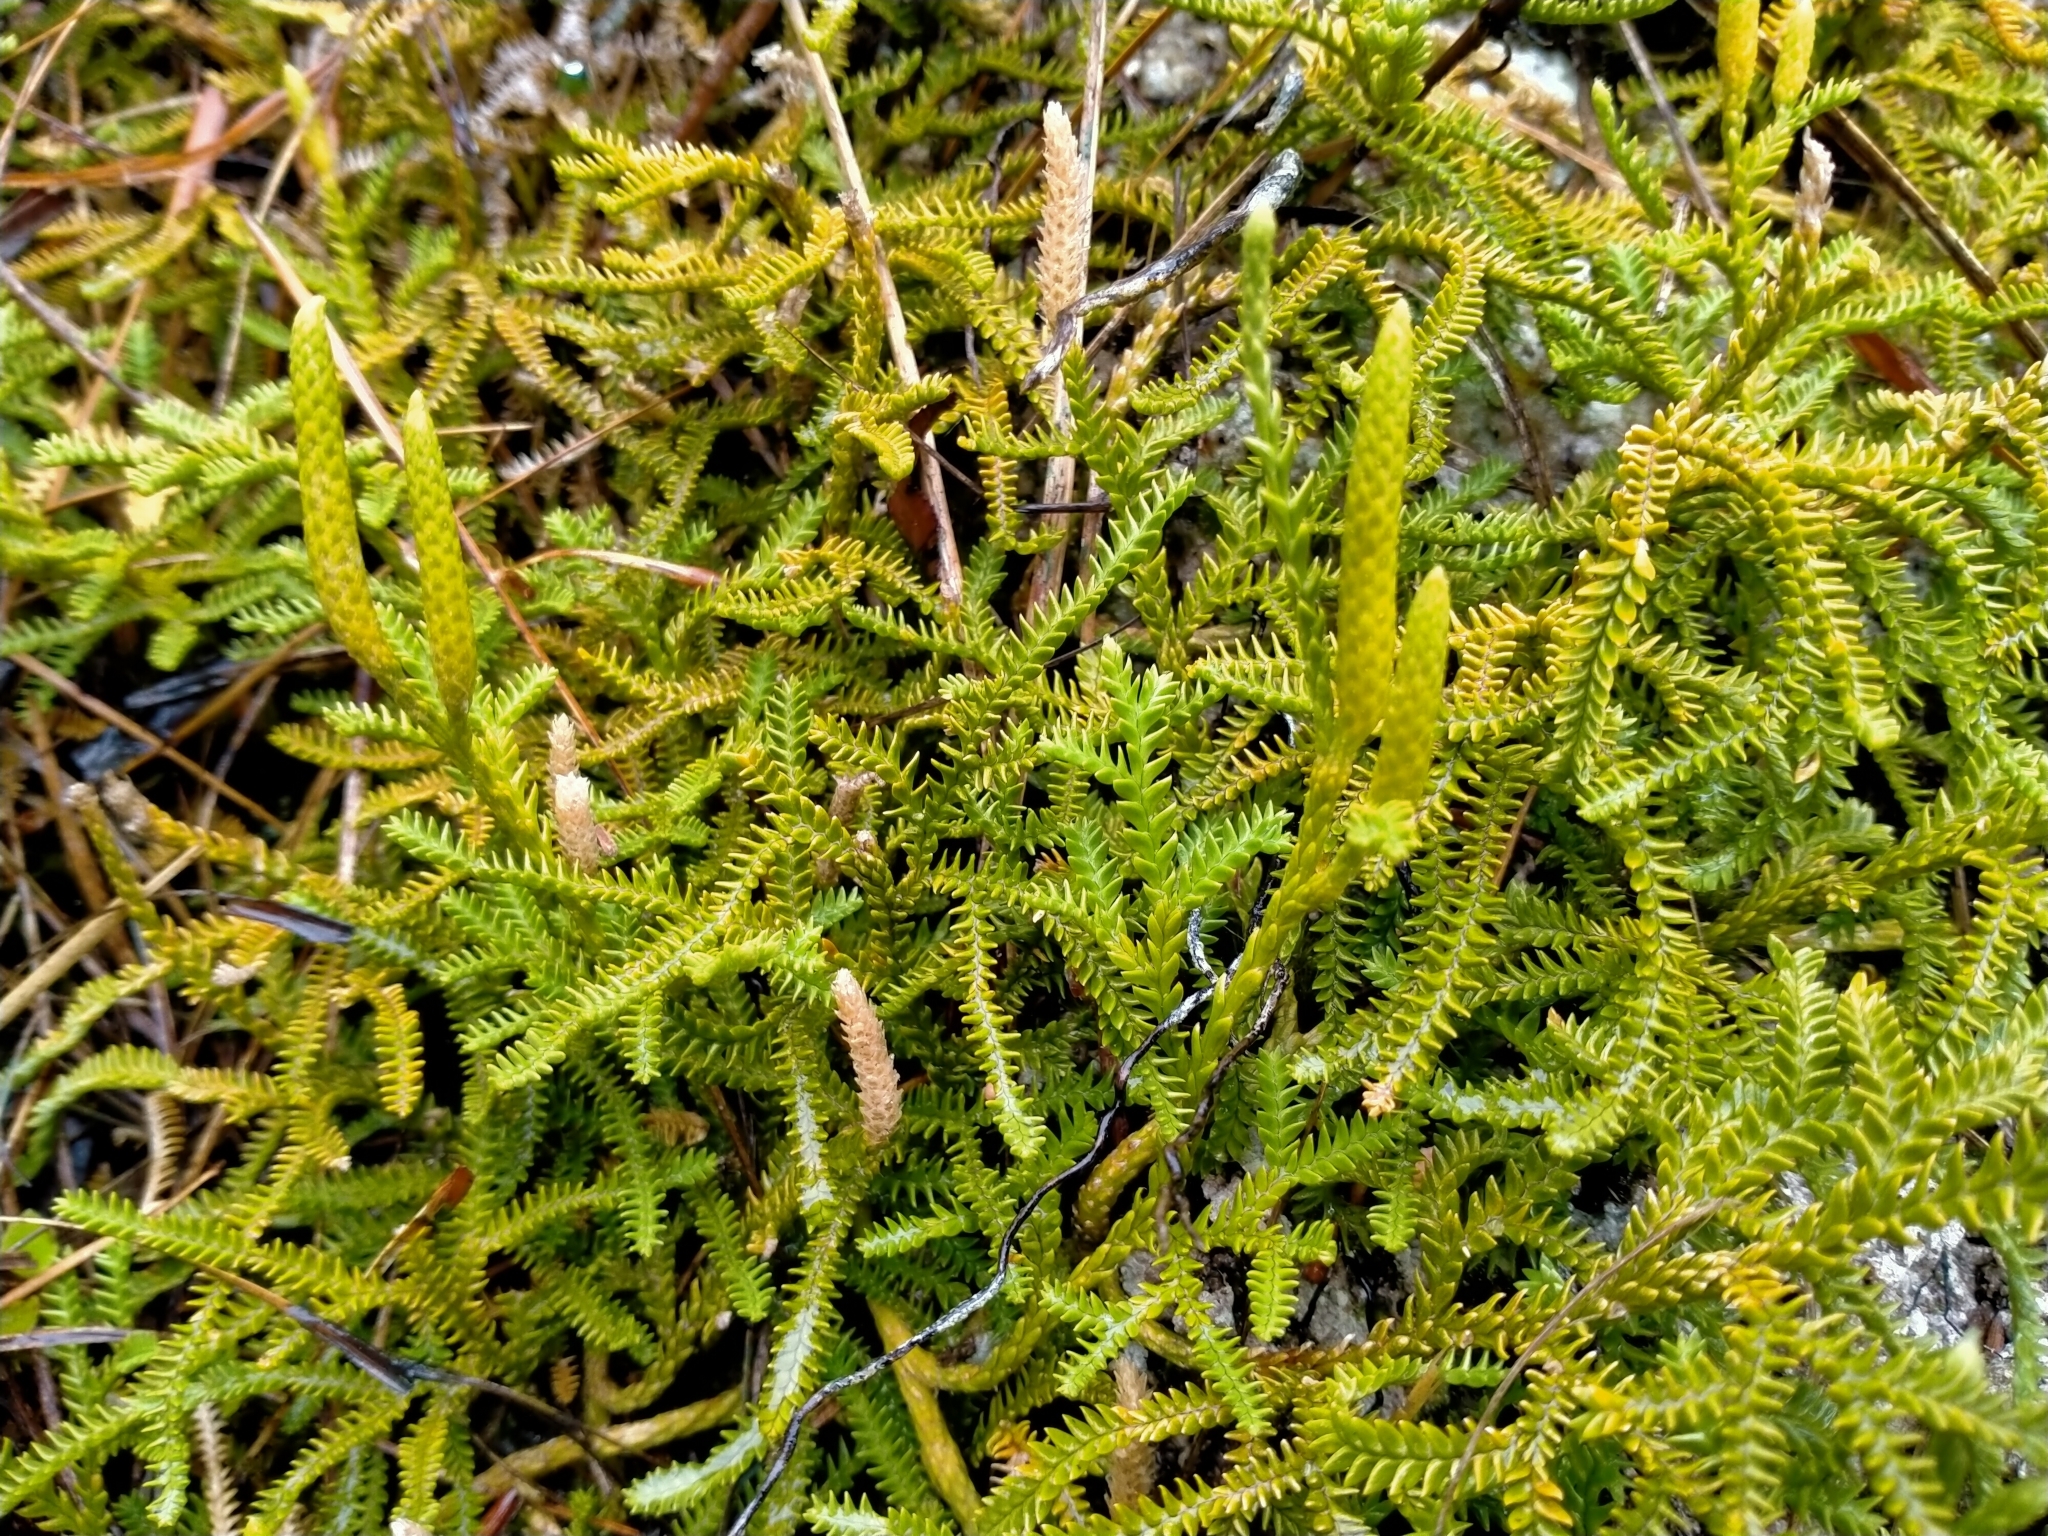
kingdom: Plantae
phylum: Tracheophyta
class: Lycopodiopsida
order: Lycopodiales
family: Lycopodiaceae
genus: Diphasium
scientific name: Diphasium scariosum
